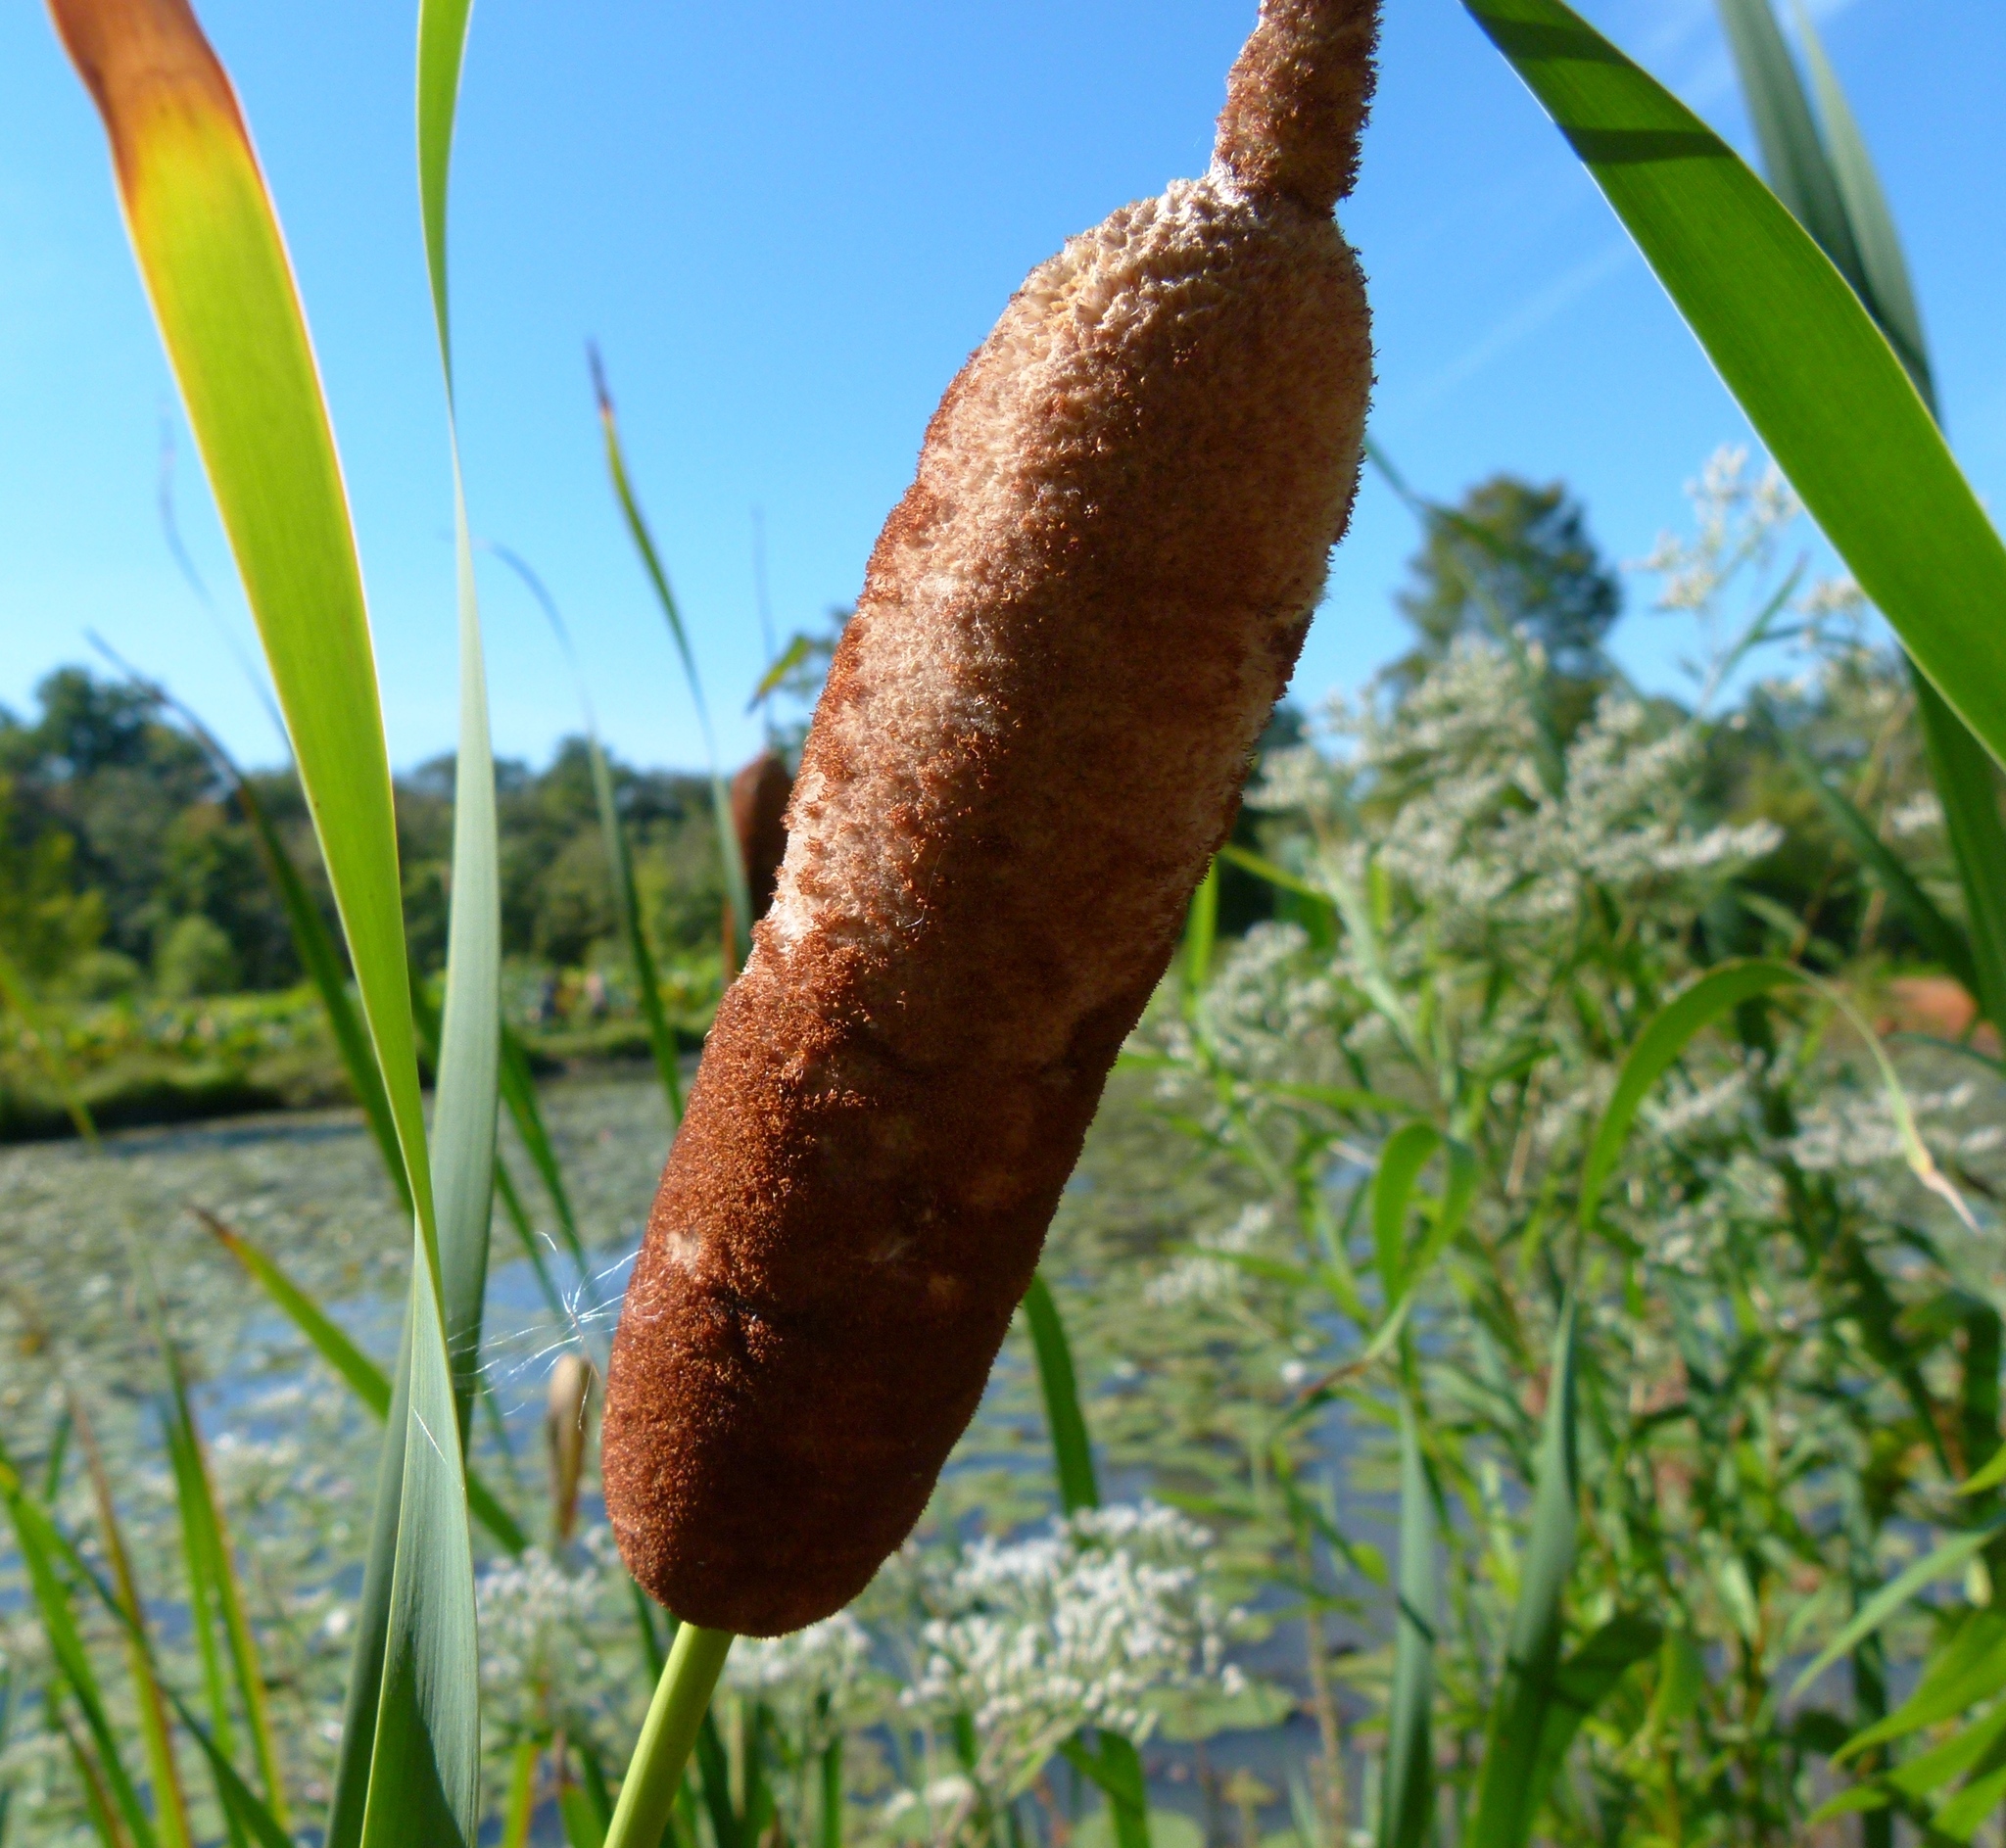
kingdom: Plantae
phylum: Tracheophyta
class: Liliopsida
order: Poales
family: Typhaceae
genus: Typha
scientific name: Typha latifolia
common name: Broadleaf cattail
